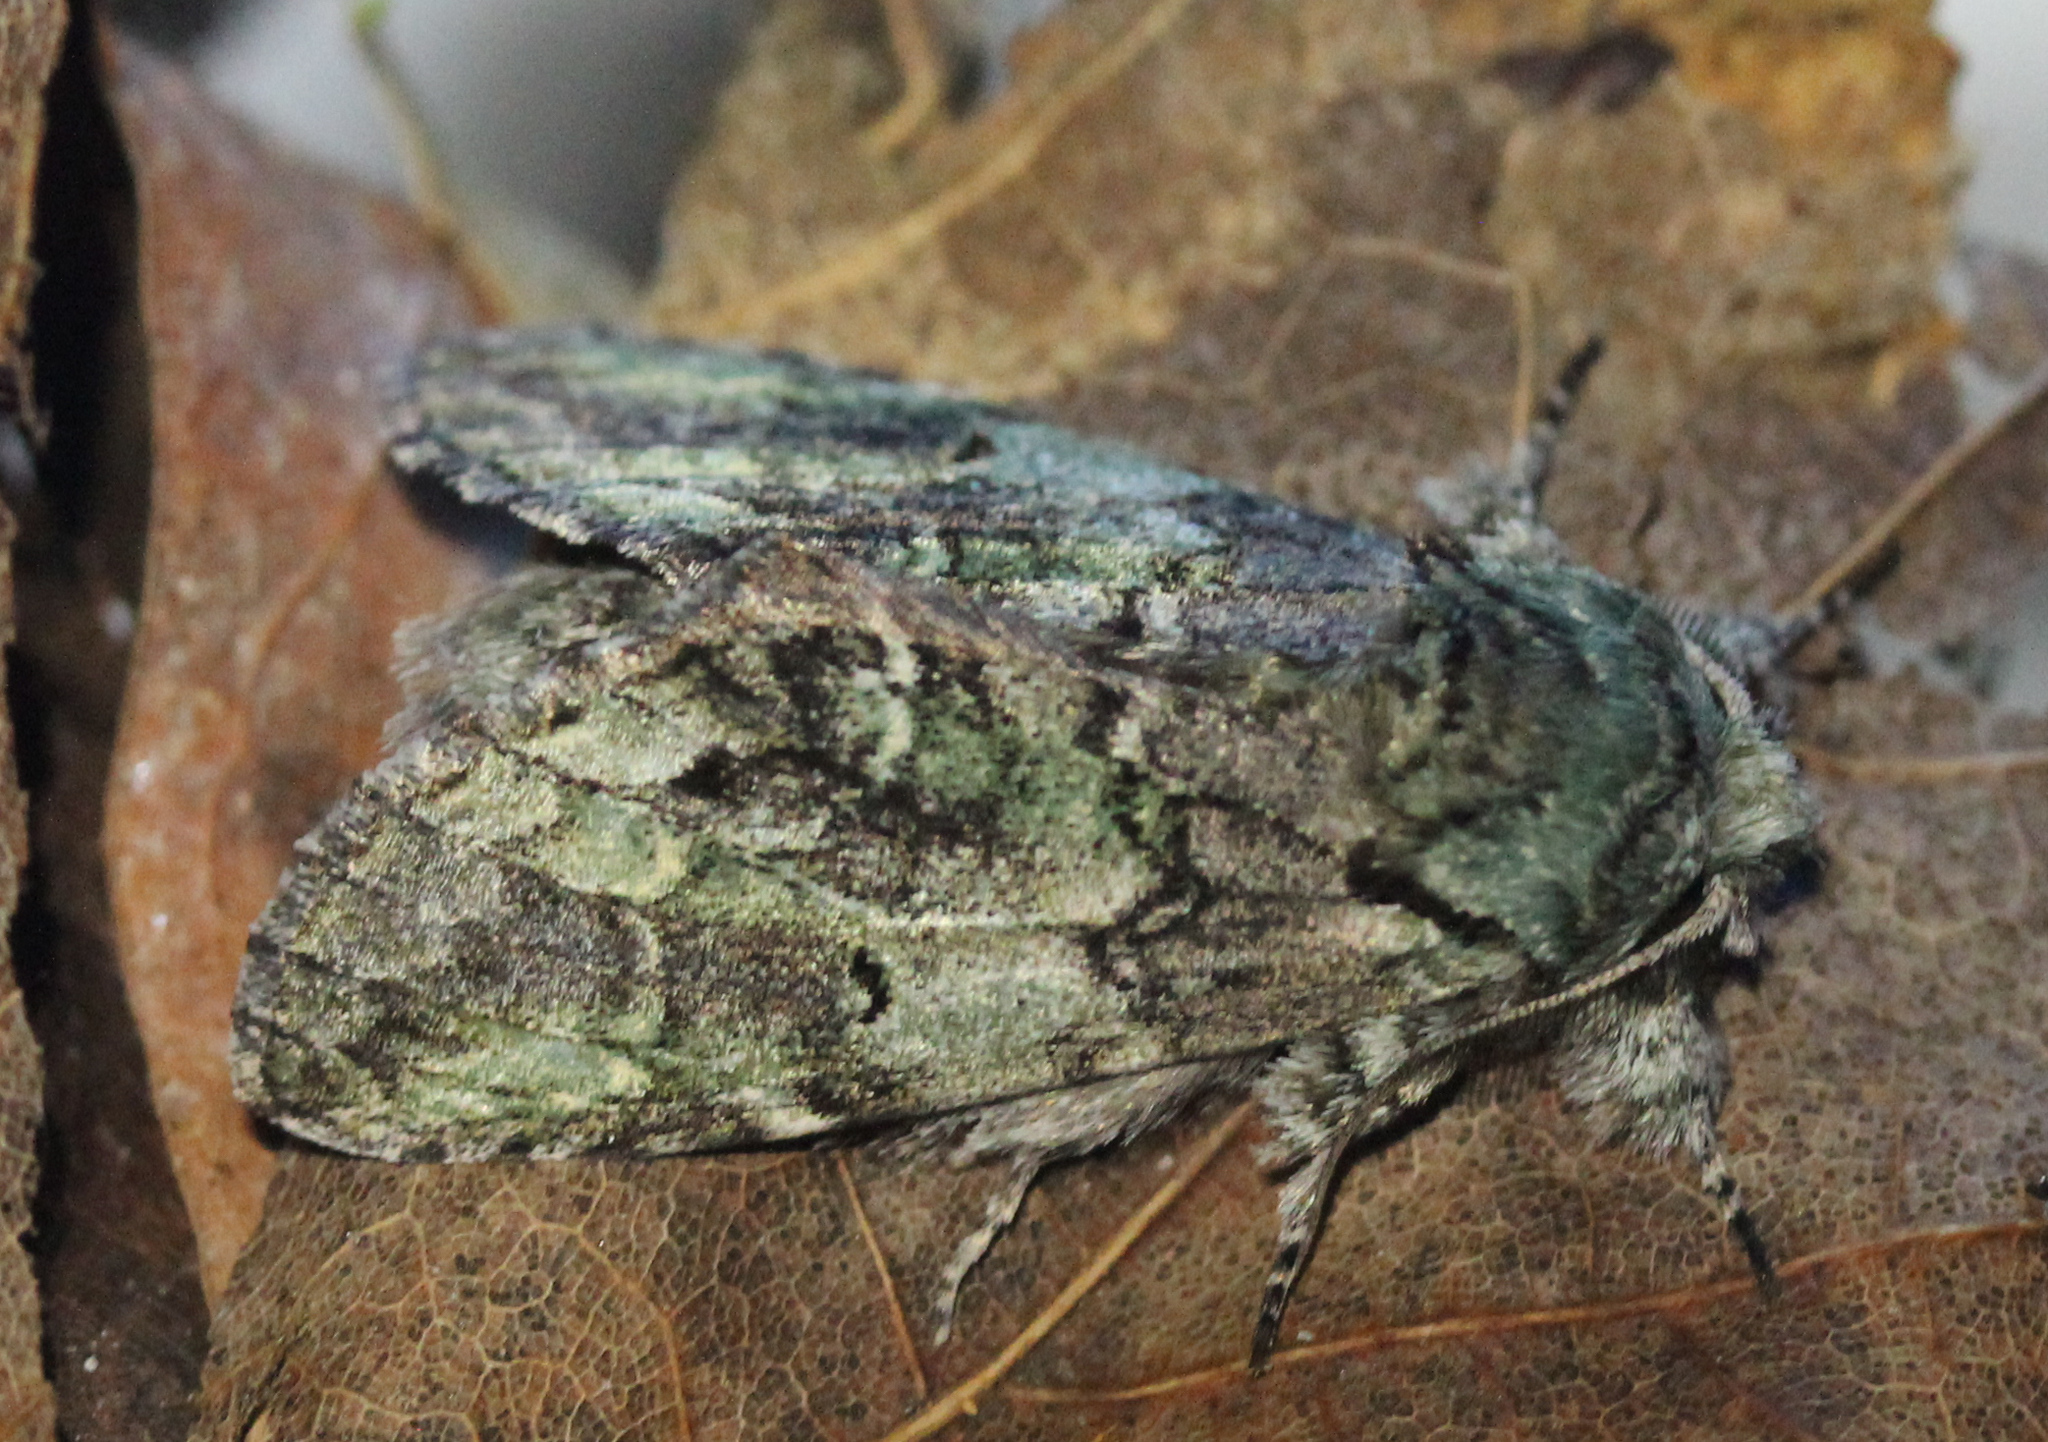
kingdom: Animalia
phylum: Arthropoda
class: Insecta
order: Lepidoptera
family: Notodontidae
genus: Macrurocampa
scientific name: Macrurocampa marthesia
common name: Mottled prominent
